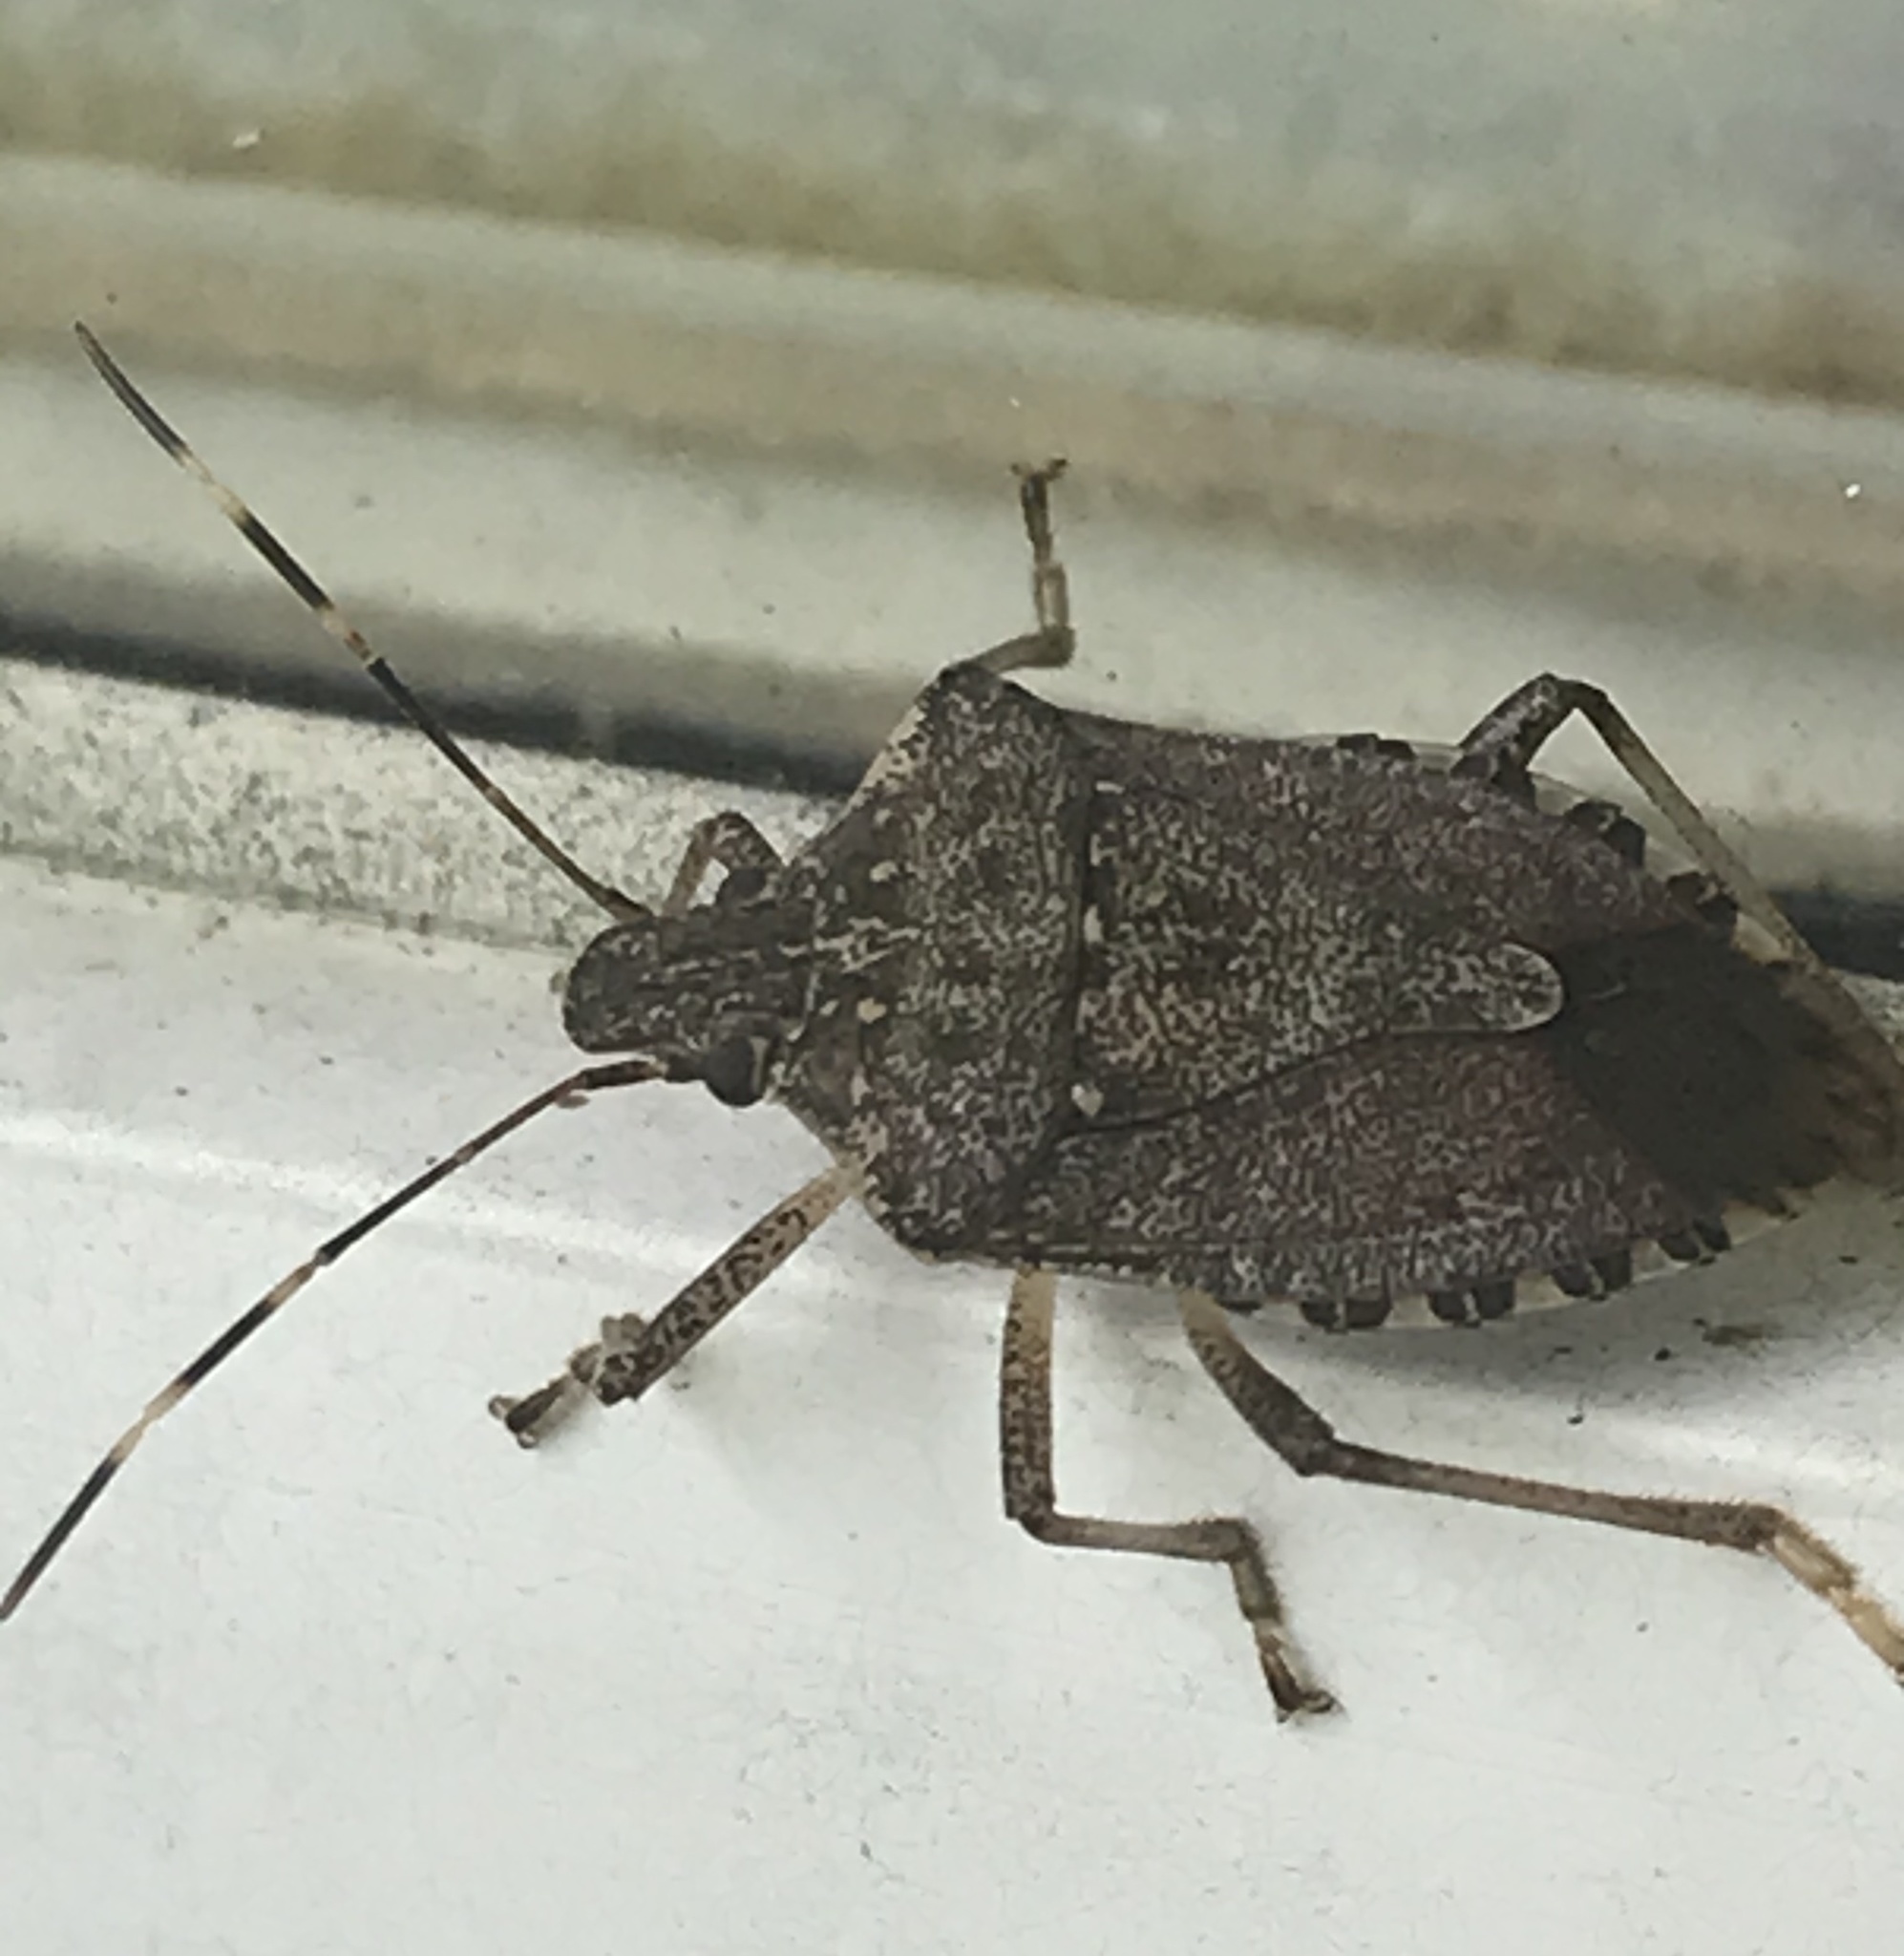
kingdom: Animalia
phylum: Arthropoda
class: Insecta
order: Hemiptera
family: Pentatomidae
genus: Halyomorpha
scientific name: Halyomorpha halys
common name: Brown marmorated stink bug
